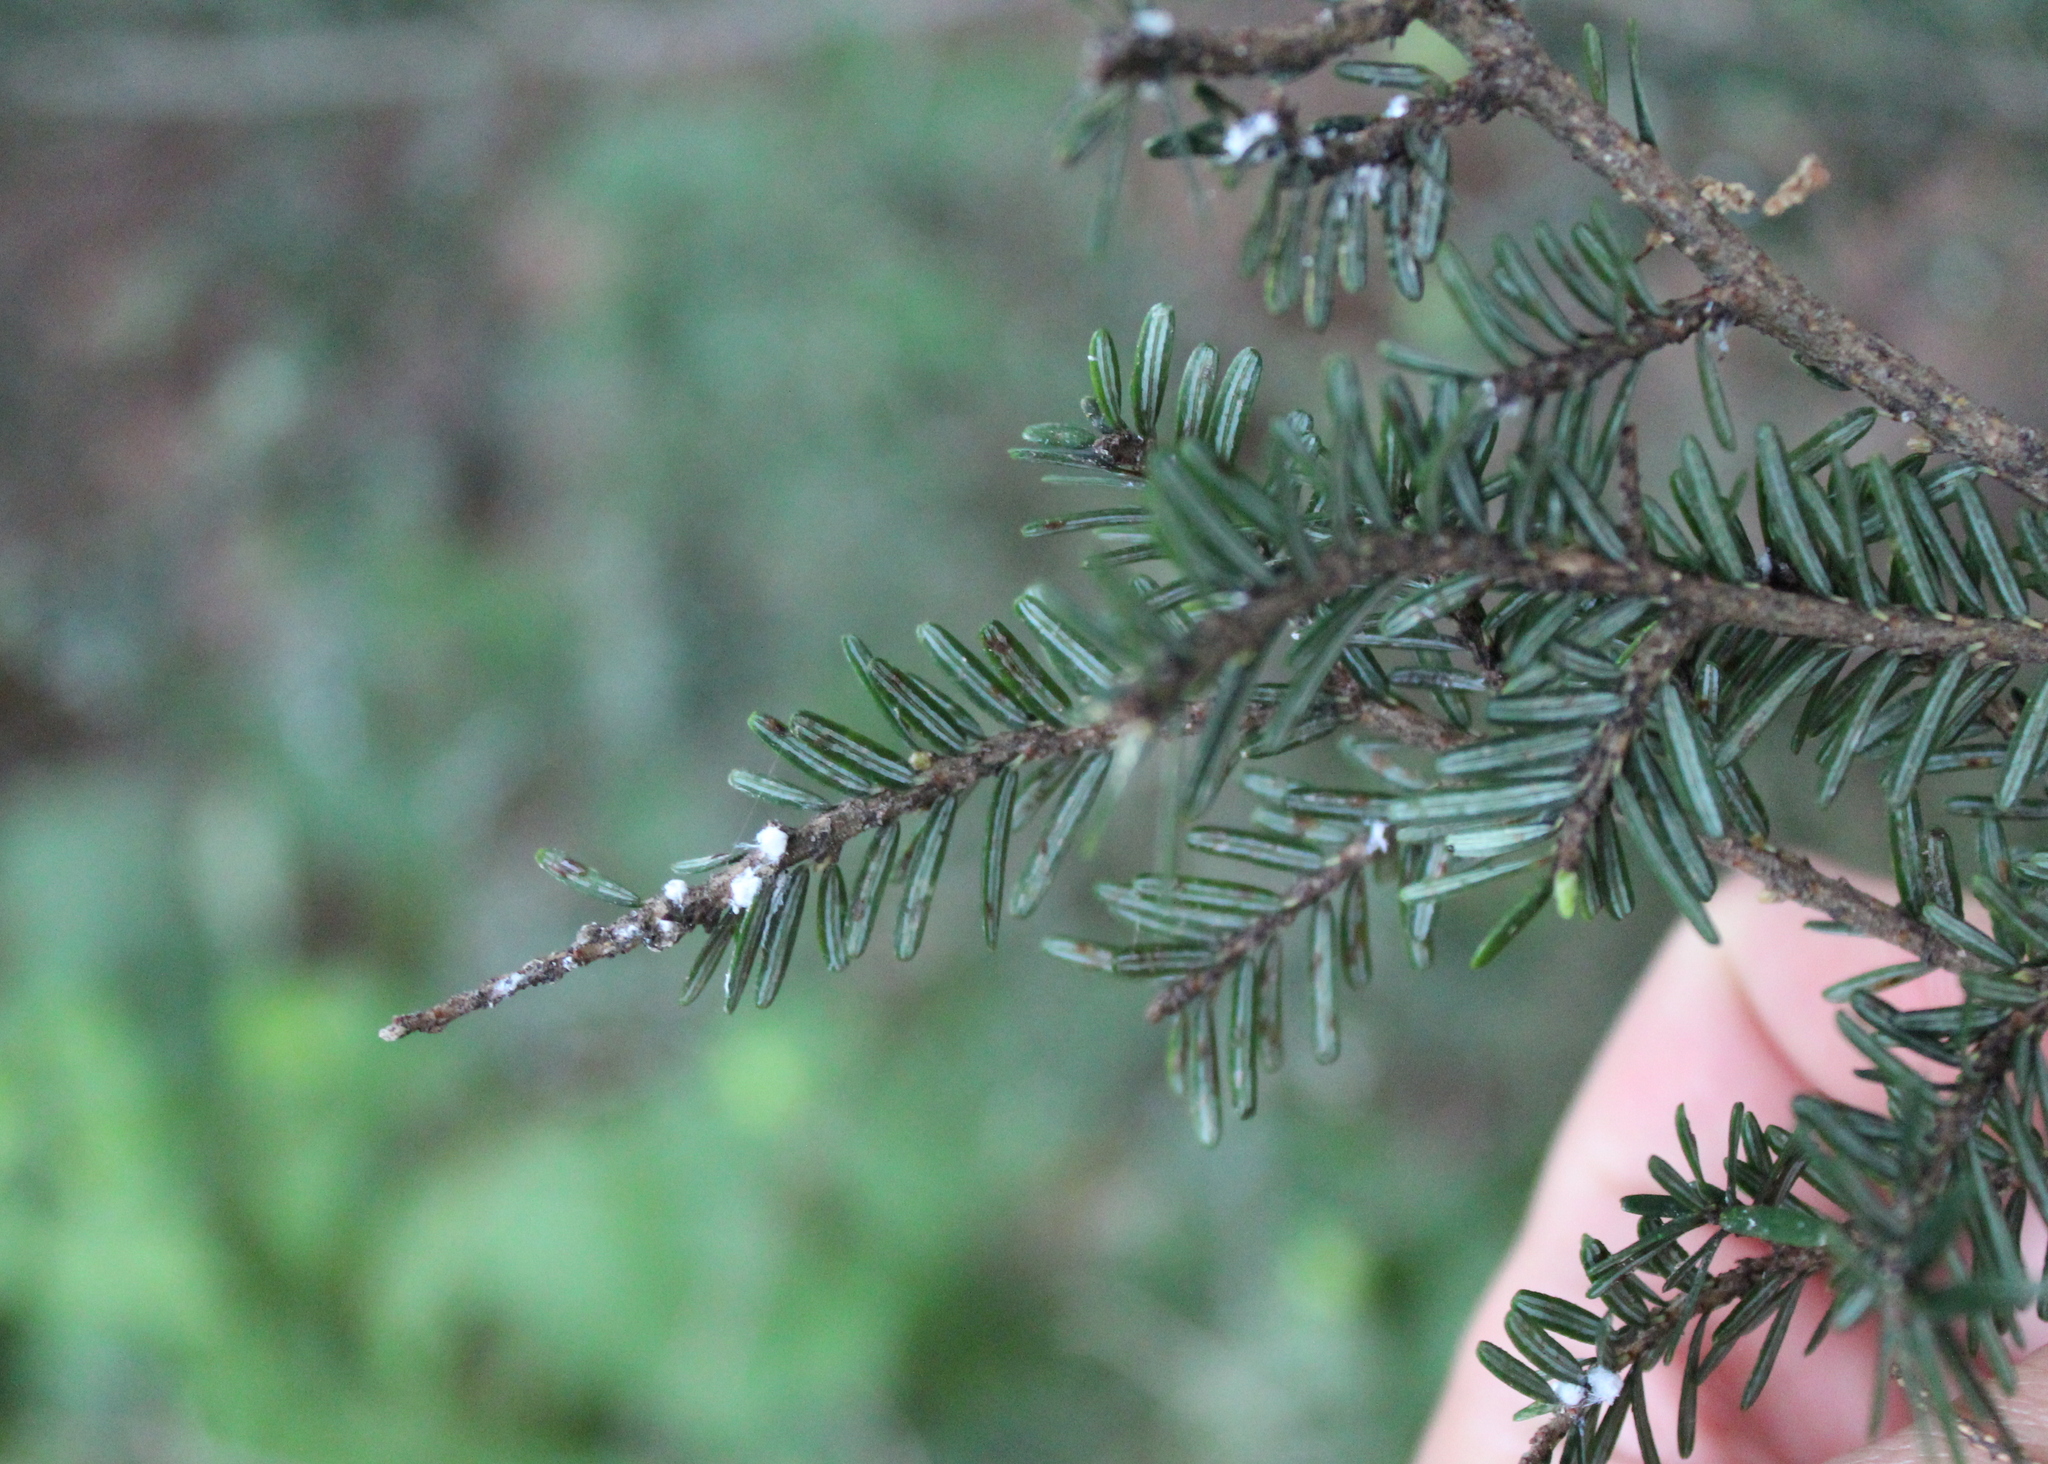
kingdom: Plantae
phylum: Tracheophyta
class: Pinopsida
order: Pinales
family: Pinaceae
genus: Tsuga
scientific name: Tsuga canadensis
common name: Eastern hemlock
